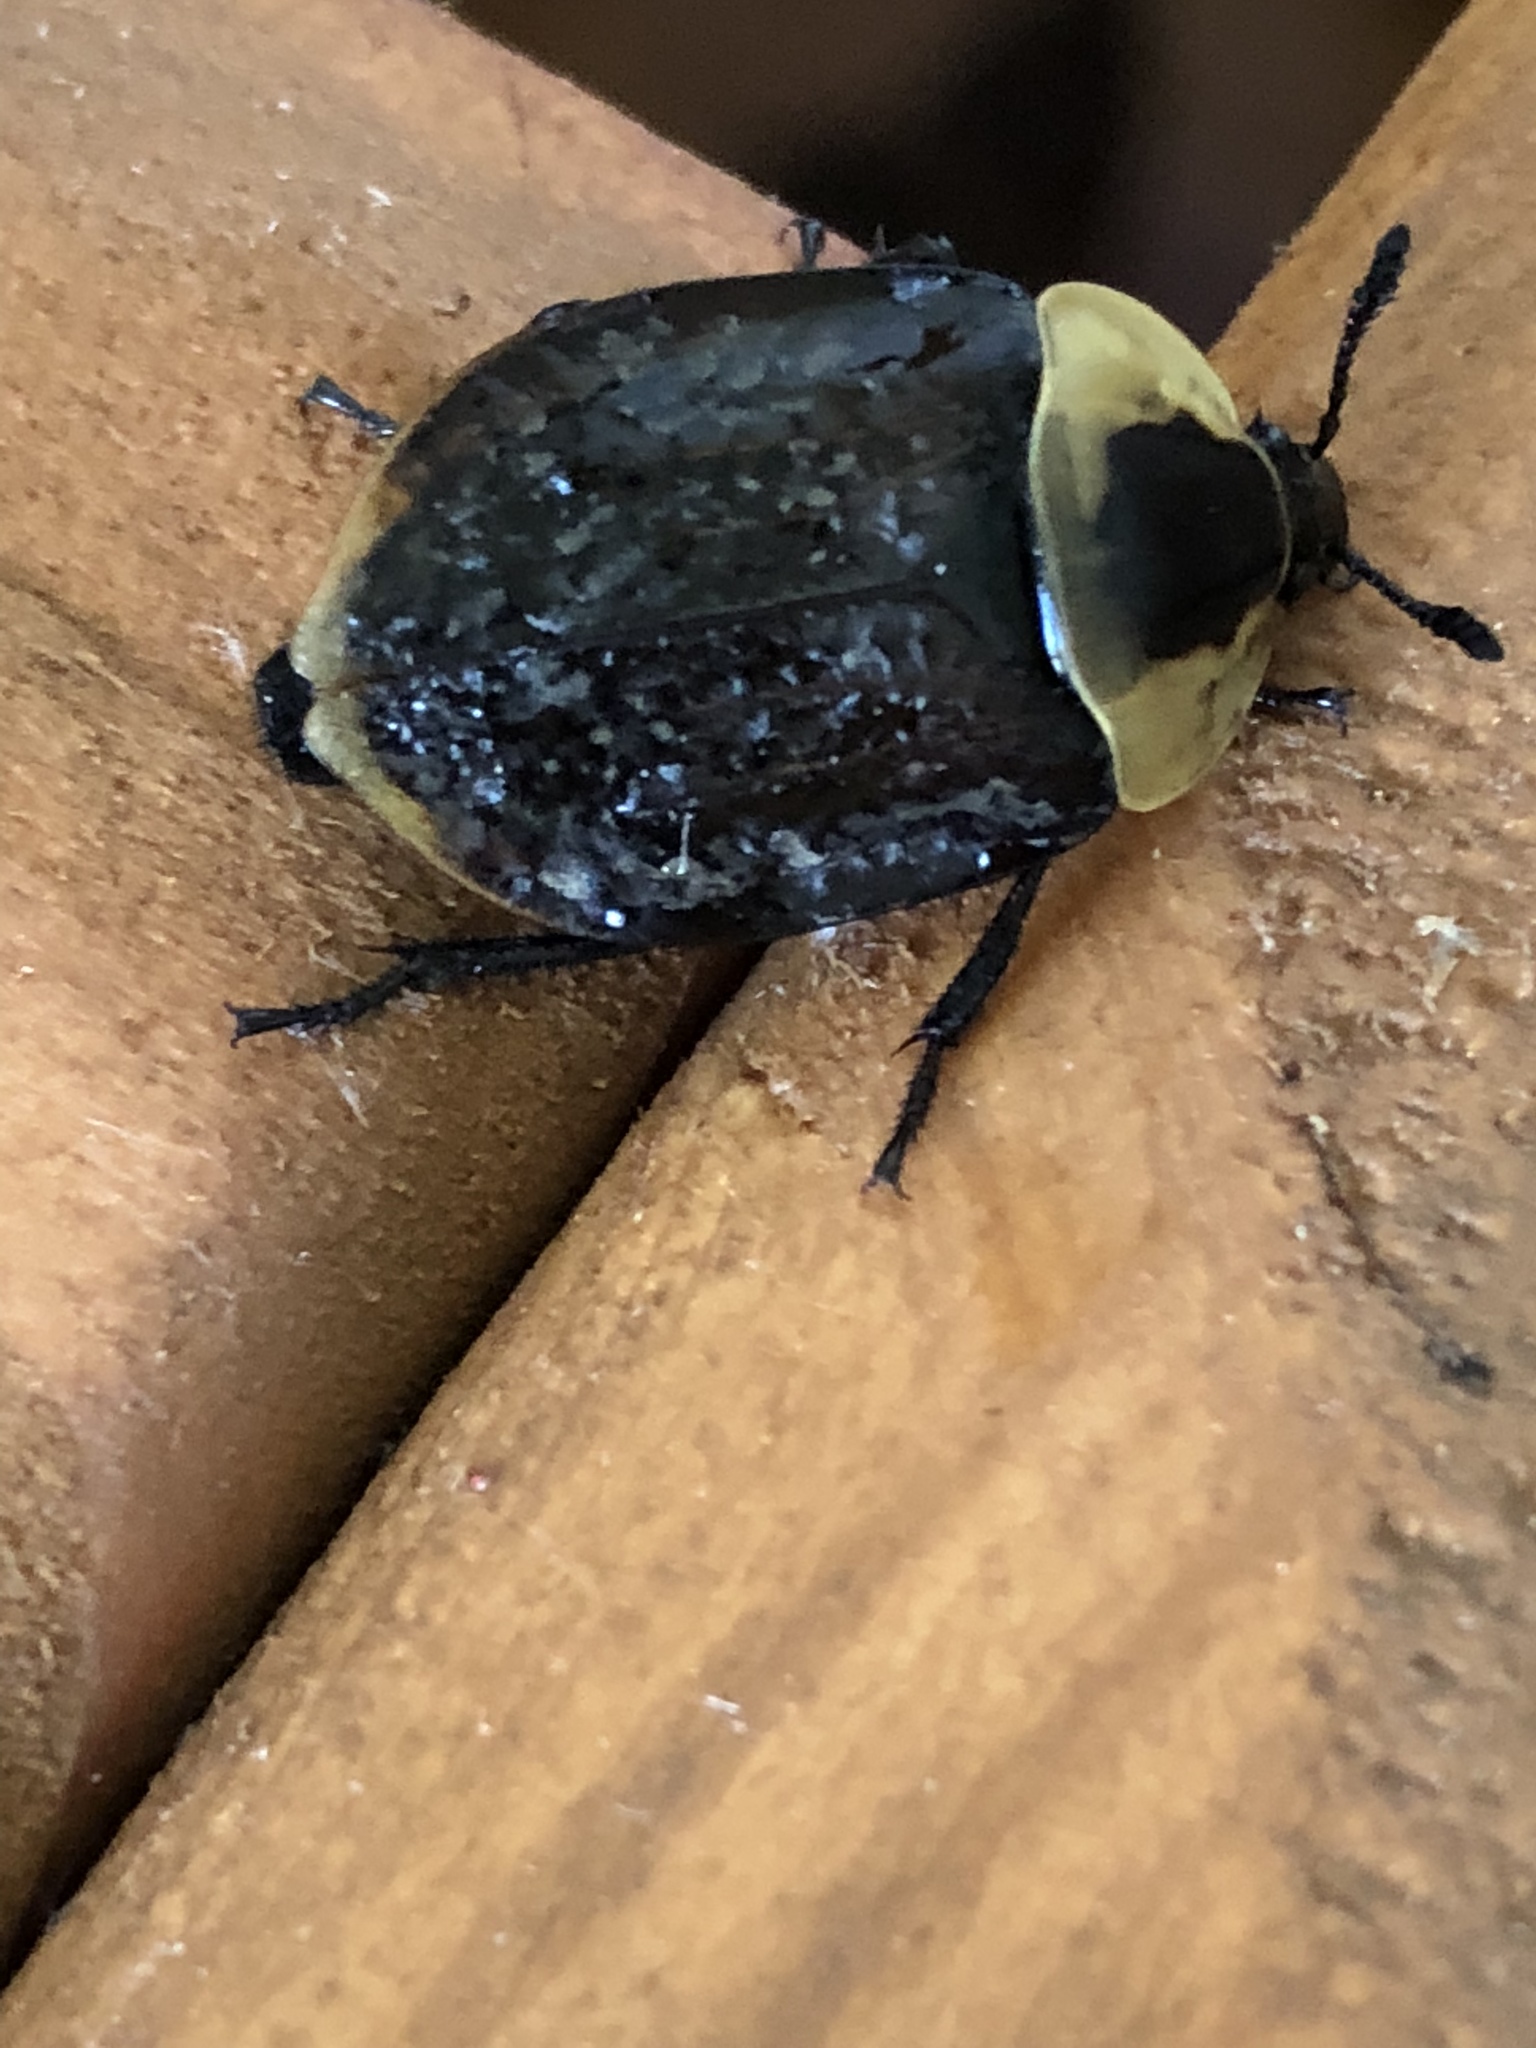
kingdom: Animalia
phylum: Arthropoda
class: Insecta
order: Coleoptera
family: Staphylinidae
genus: Necrophila
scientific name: Necrophila americana
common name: American carrion beetle
